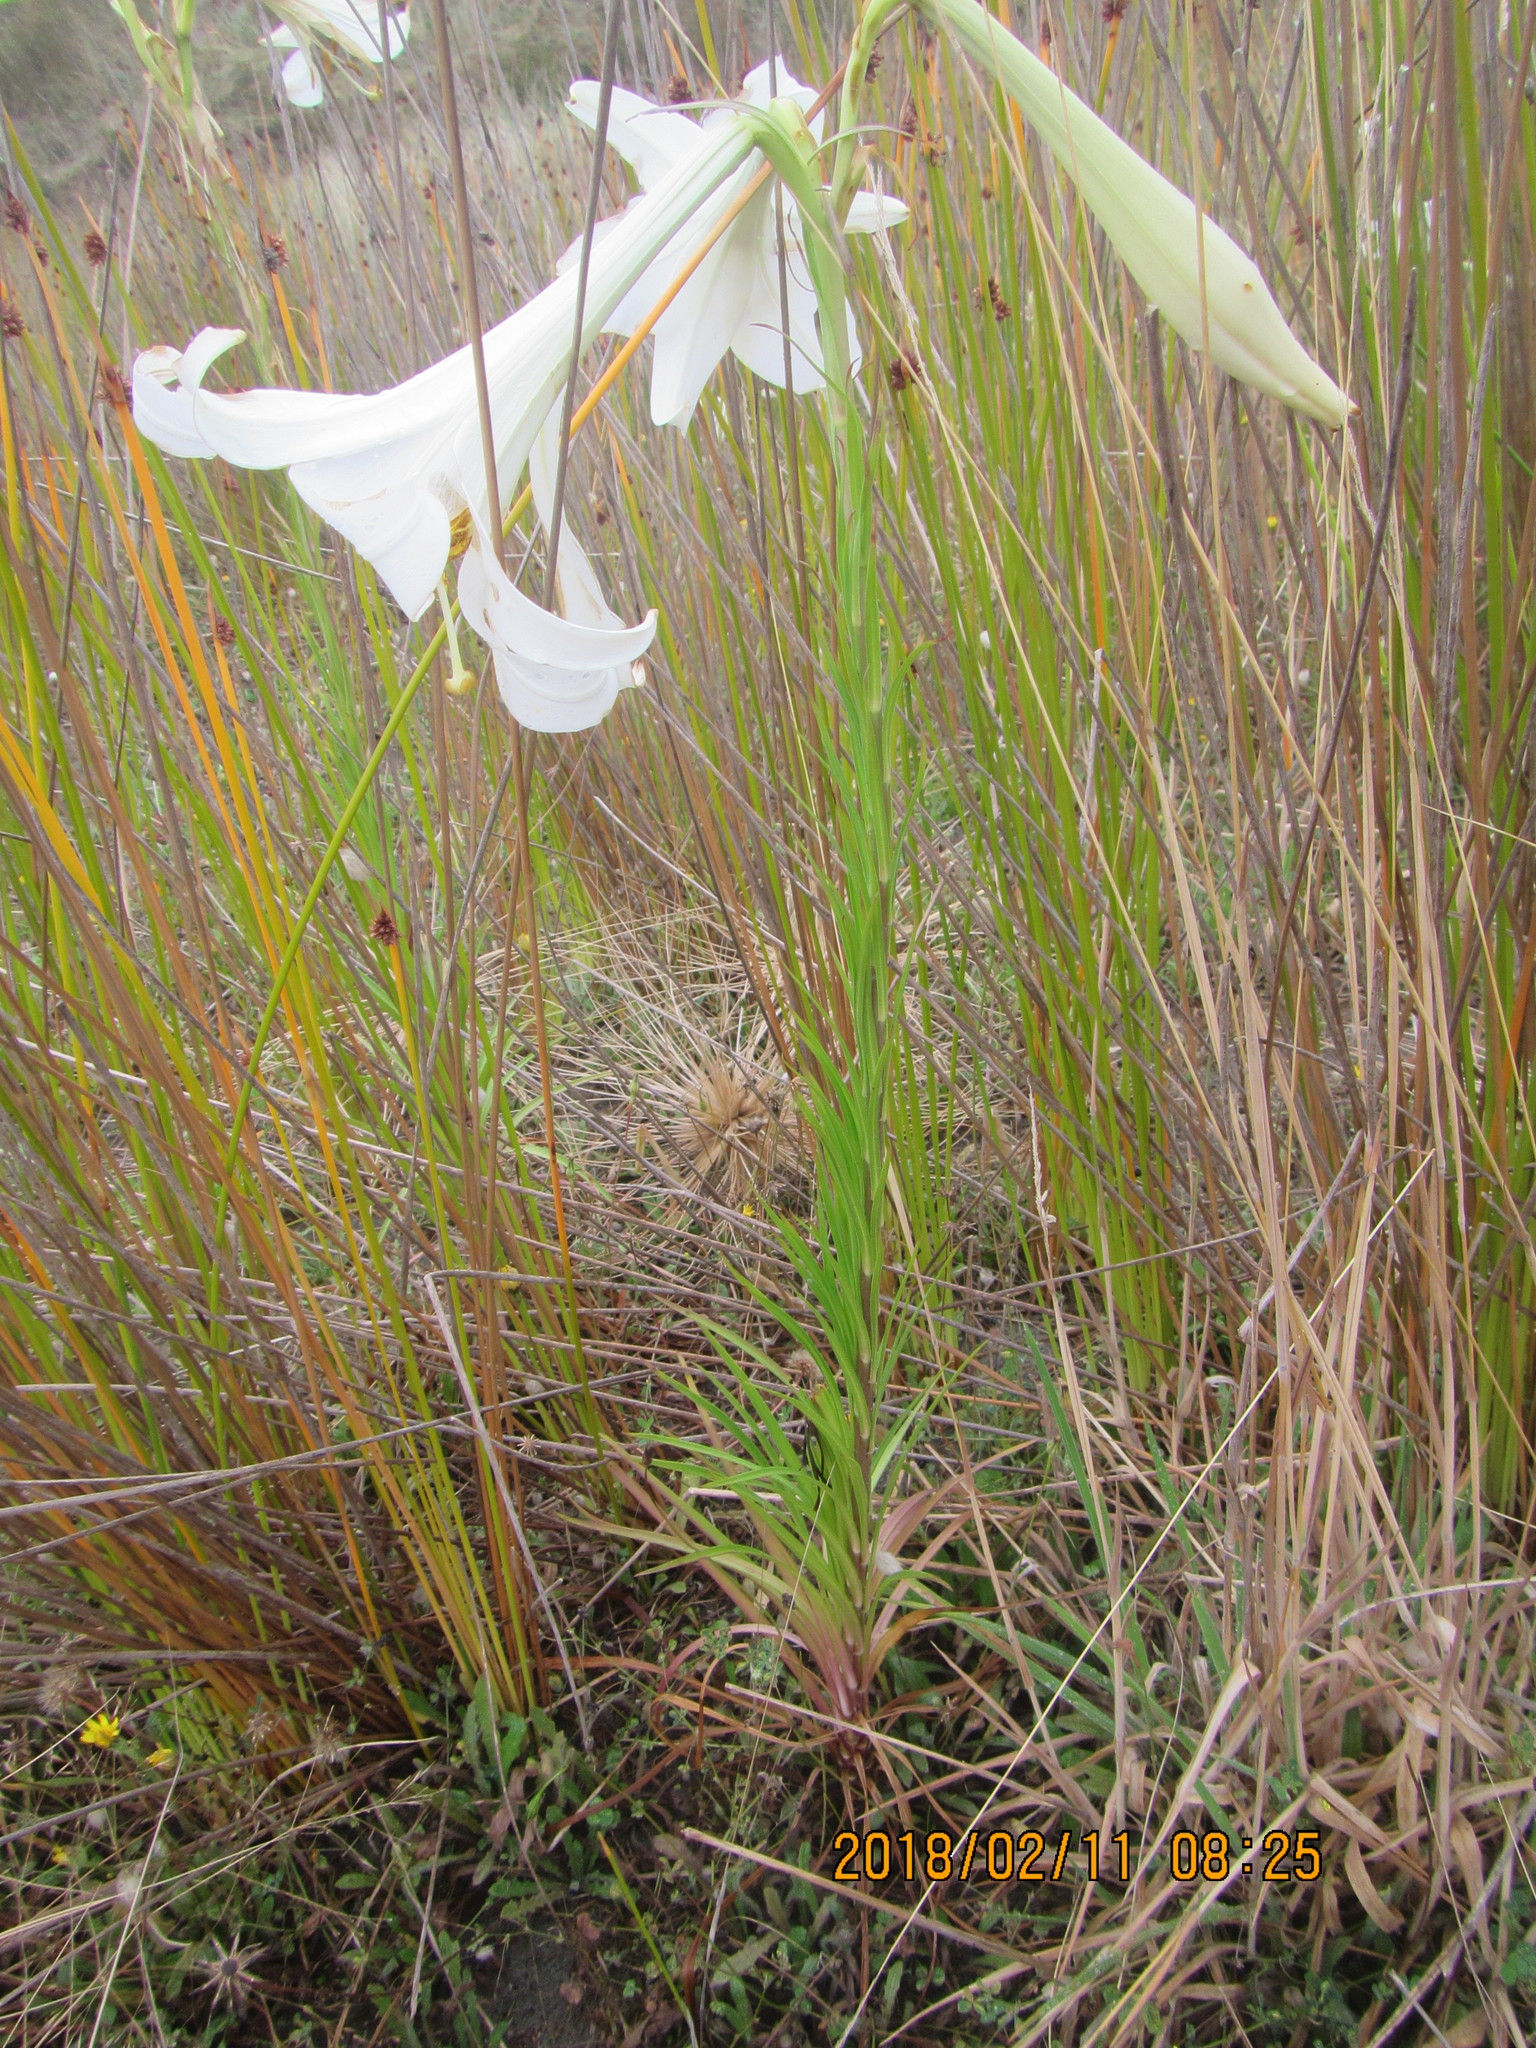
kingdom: Plantae
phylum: Tracheophyta
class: Liliopsida
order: Liliales
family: Liliaceae
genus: Lilium
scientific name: Lilium formosanum
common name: Formosa lily
